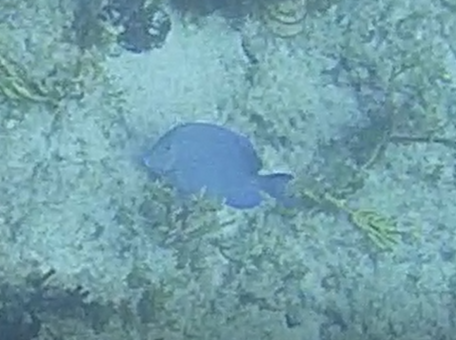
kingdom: Animalia
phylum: Chordata
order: Perciformes
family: Acanthuridae
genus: Acanthurus
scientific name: Acanthurus coeruleus
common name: Blue tang
